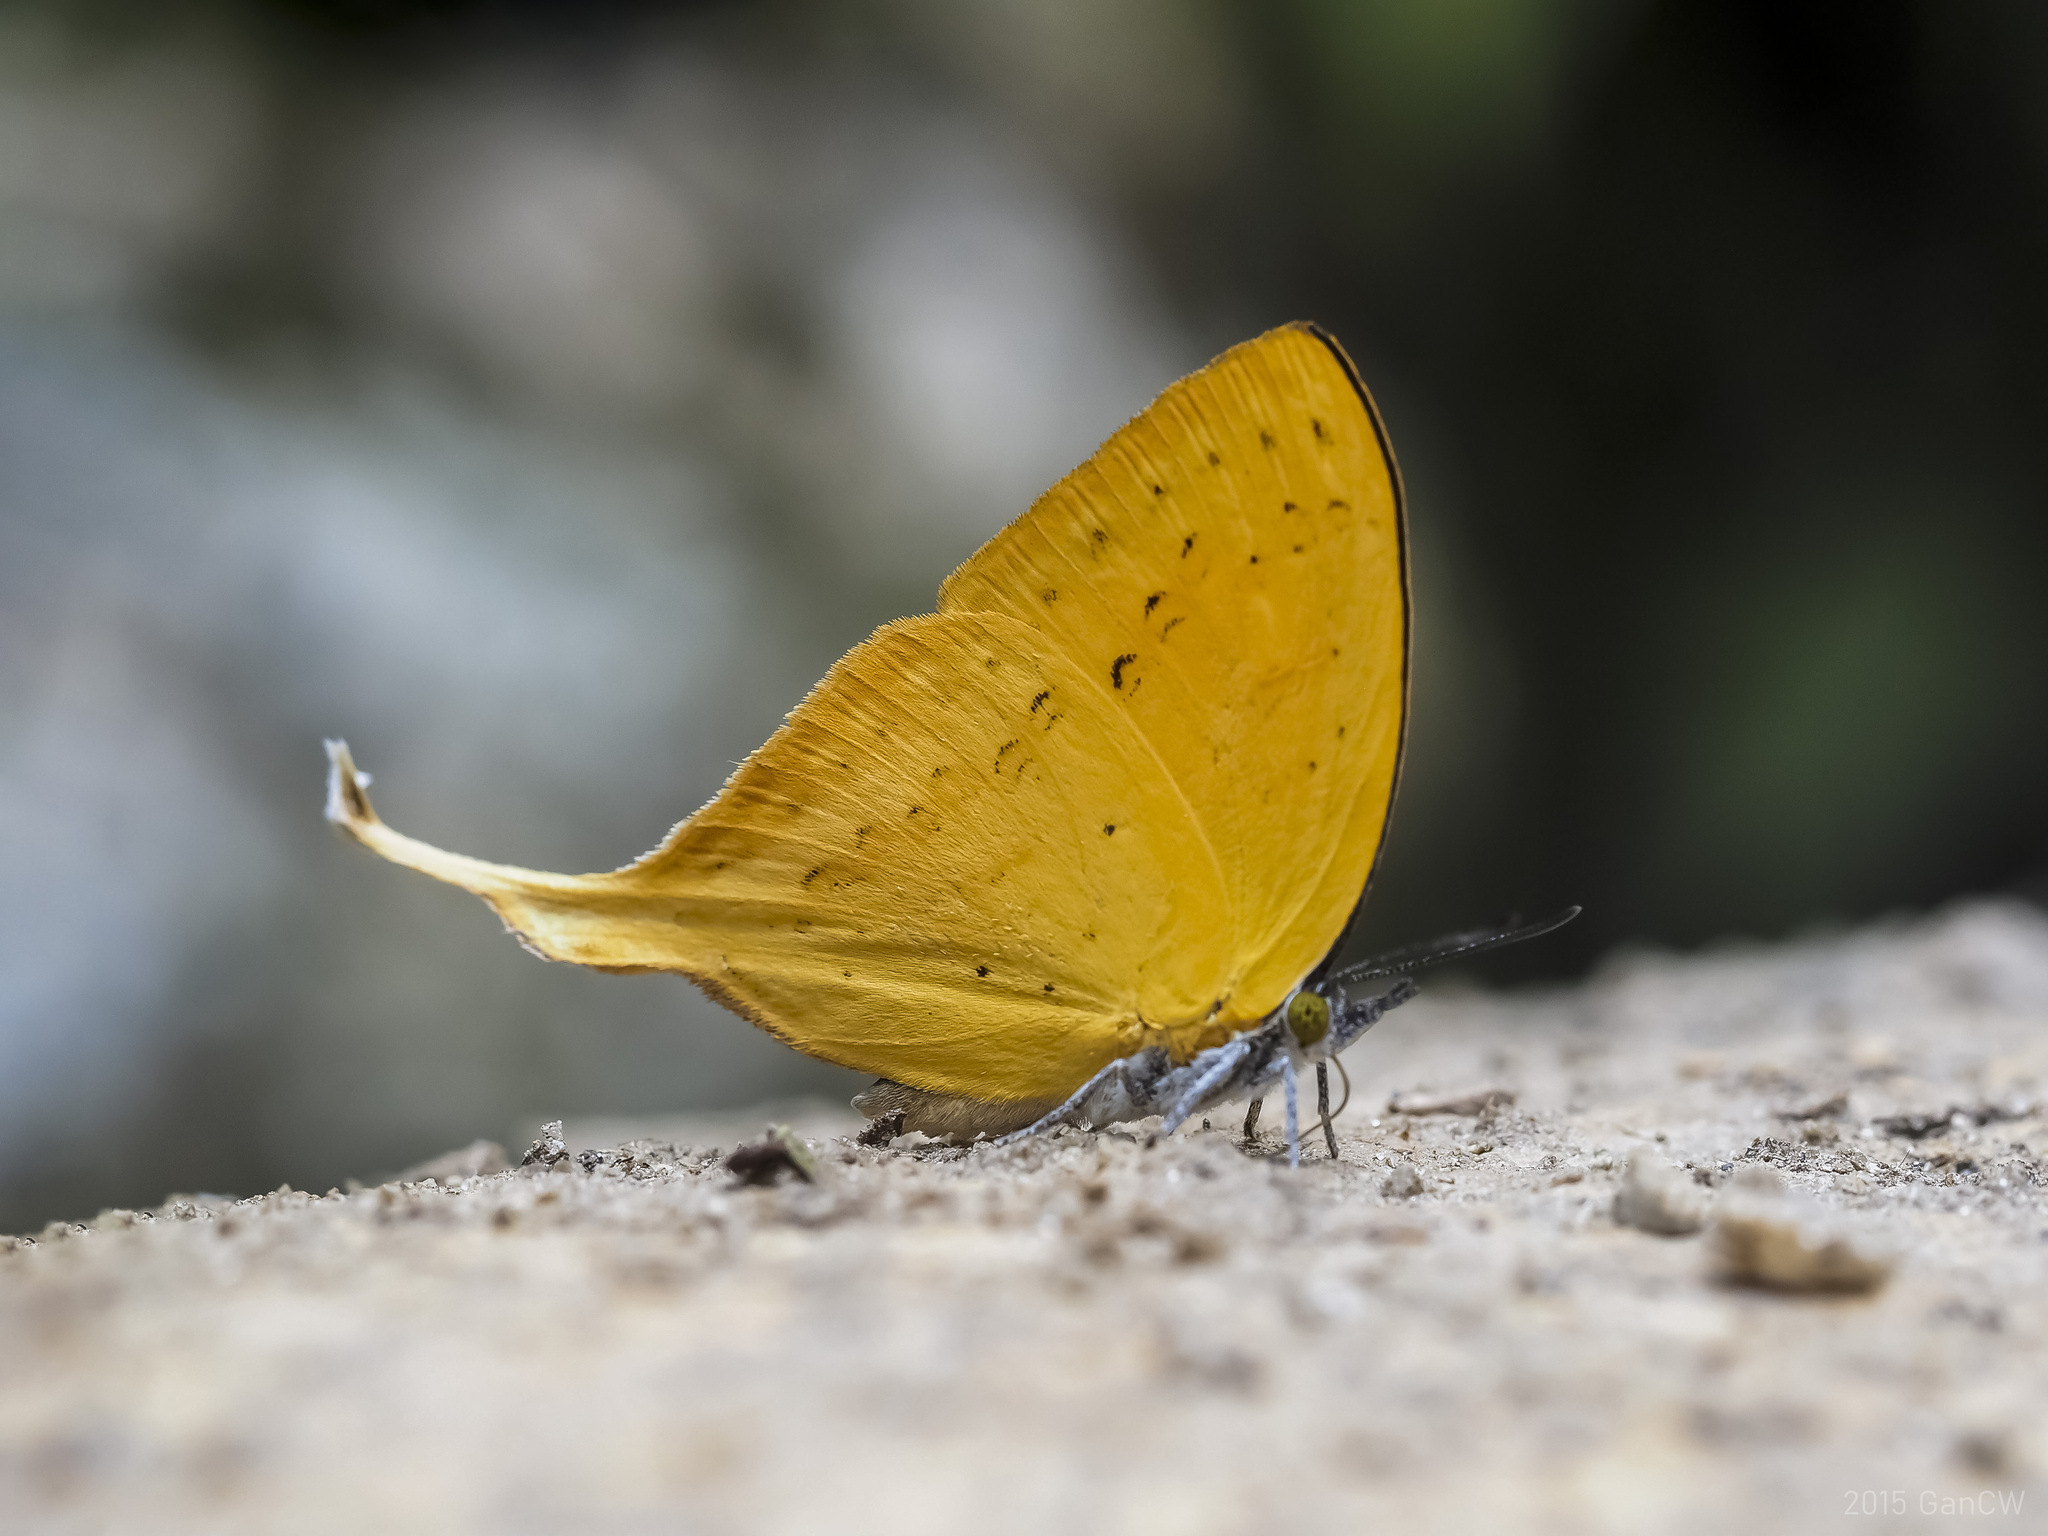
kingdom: Animalia
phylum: Arthropoda
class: Insecta
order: Lepidoptera
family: Lycaenidae
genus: Loxura
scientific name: Loxura cassiopeia
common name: Malayan yamfly
